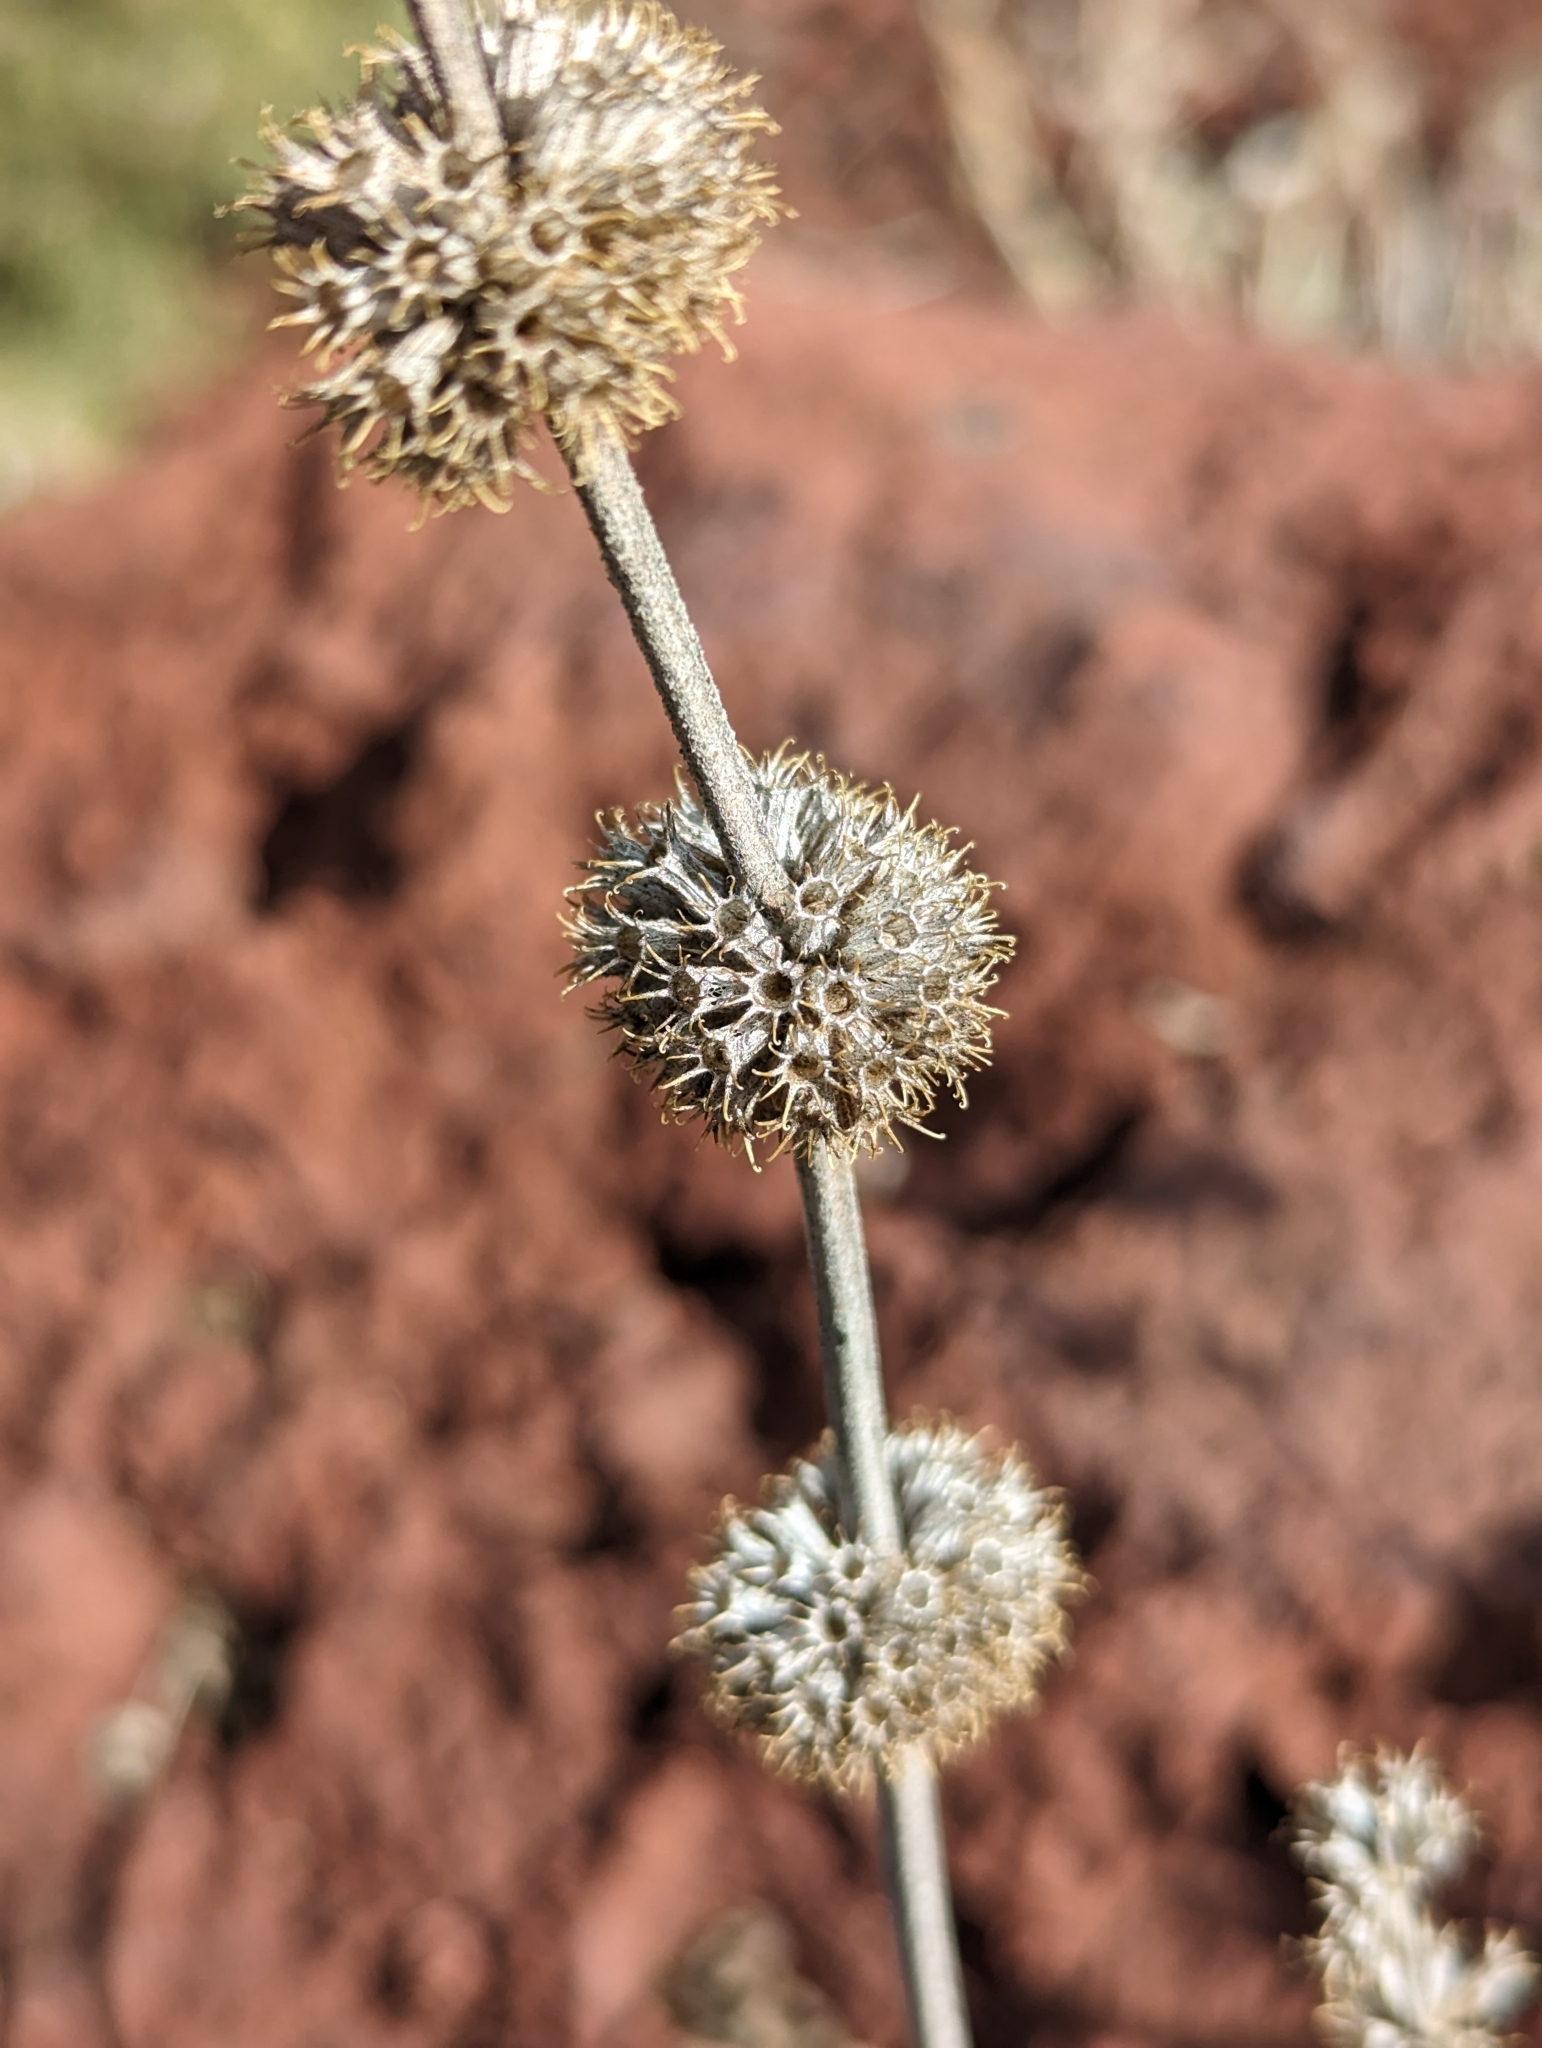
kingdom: Plantae
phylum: Tracheophyta
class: Magnoliopsida
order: Lamiales
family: Lamiaceae
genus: Marrubium
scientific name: Marrubium vulgare
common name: Horehound
